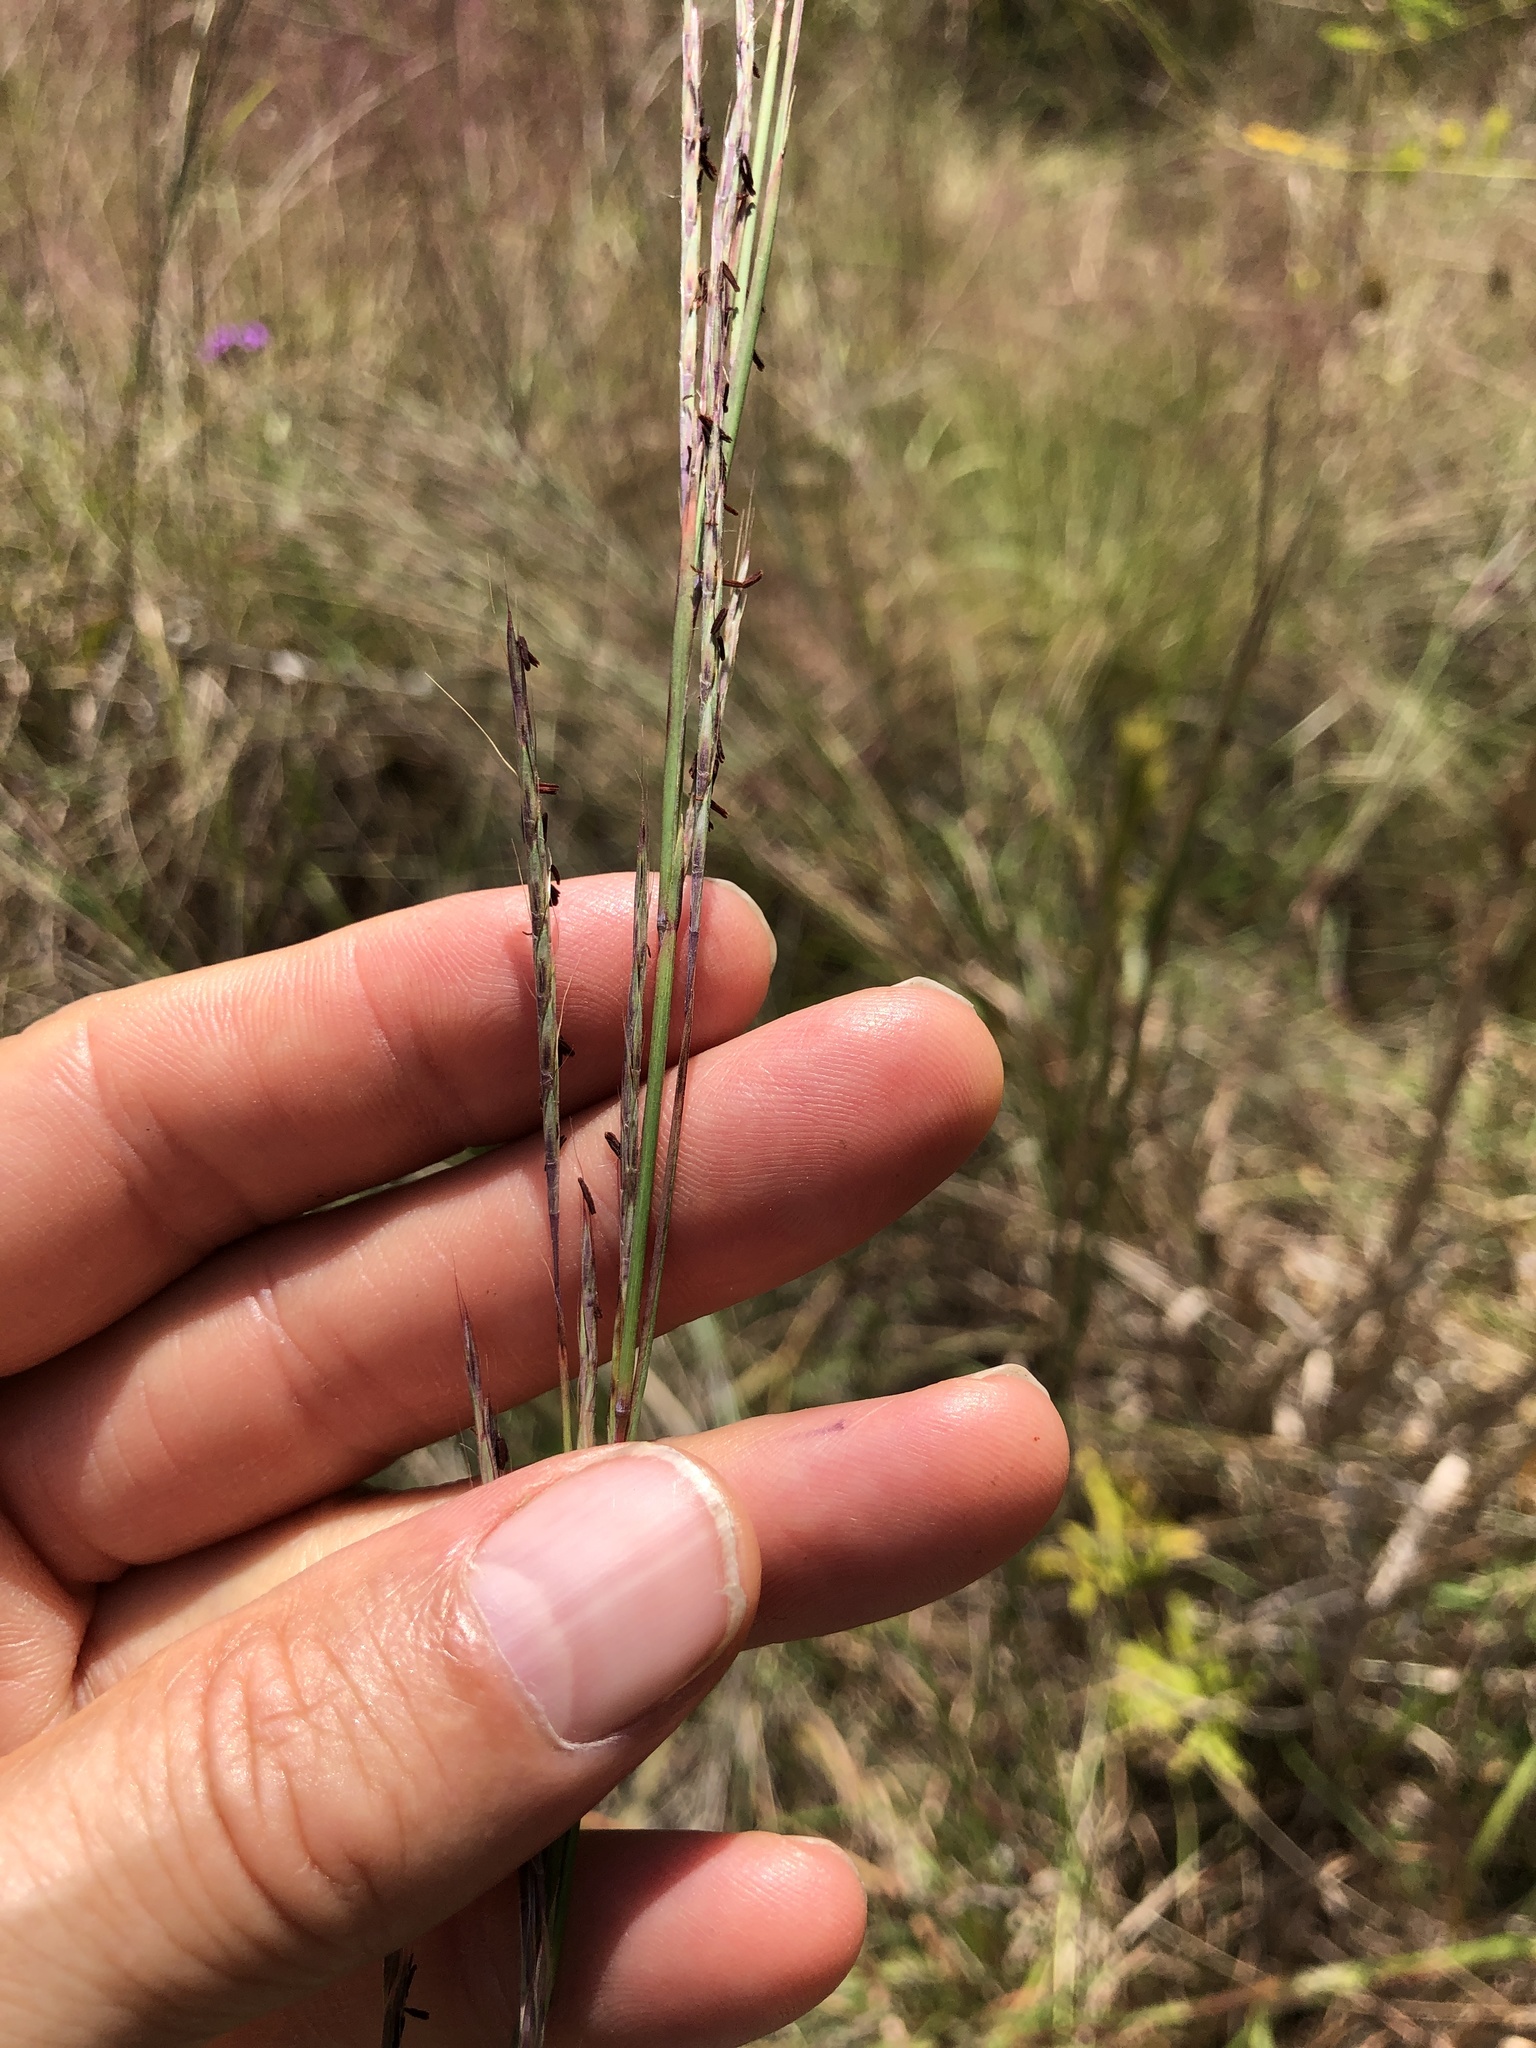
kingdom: Plantae
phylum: Tracheophyta
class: Liliopsida
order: Poales
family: Poaceae
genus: Schizachyrium
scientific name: Schizachyrium scoparium
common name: Little bluestem
